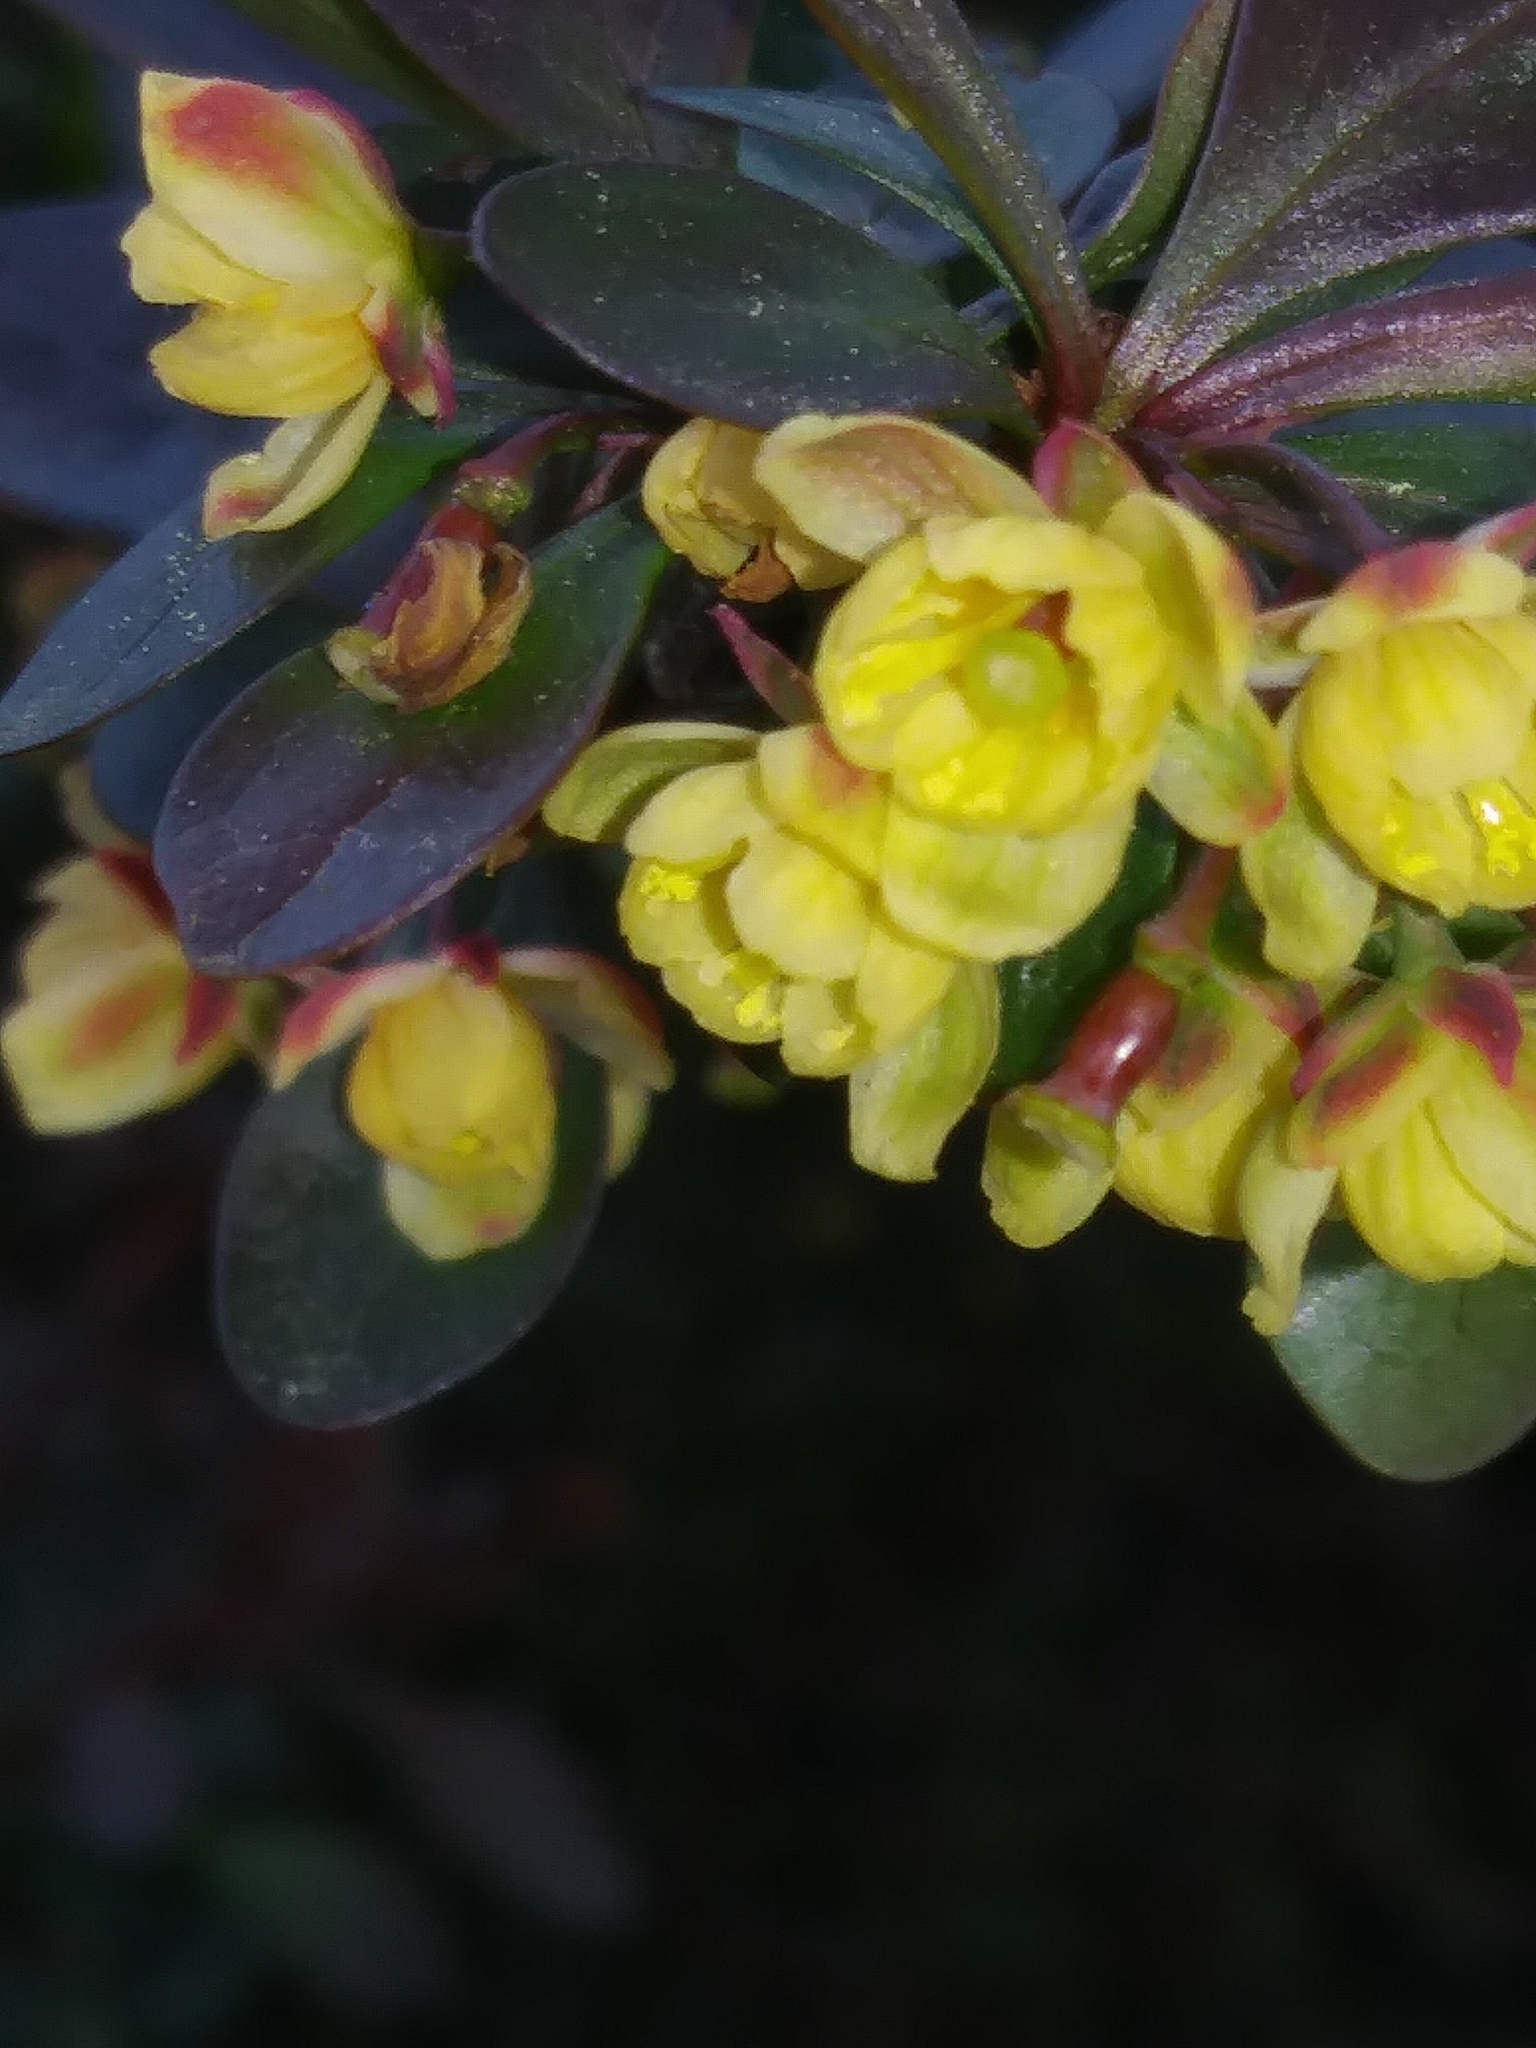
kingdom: Plantae
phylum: Tracheophyta
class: Magnoliopsida
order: Ranunculales
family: Berberidaceae
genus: Berberis
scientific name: Berberis thunbergii
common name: Japanese barberry
